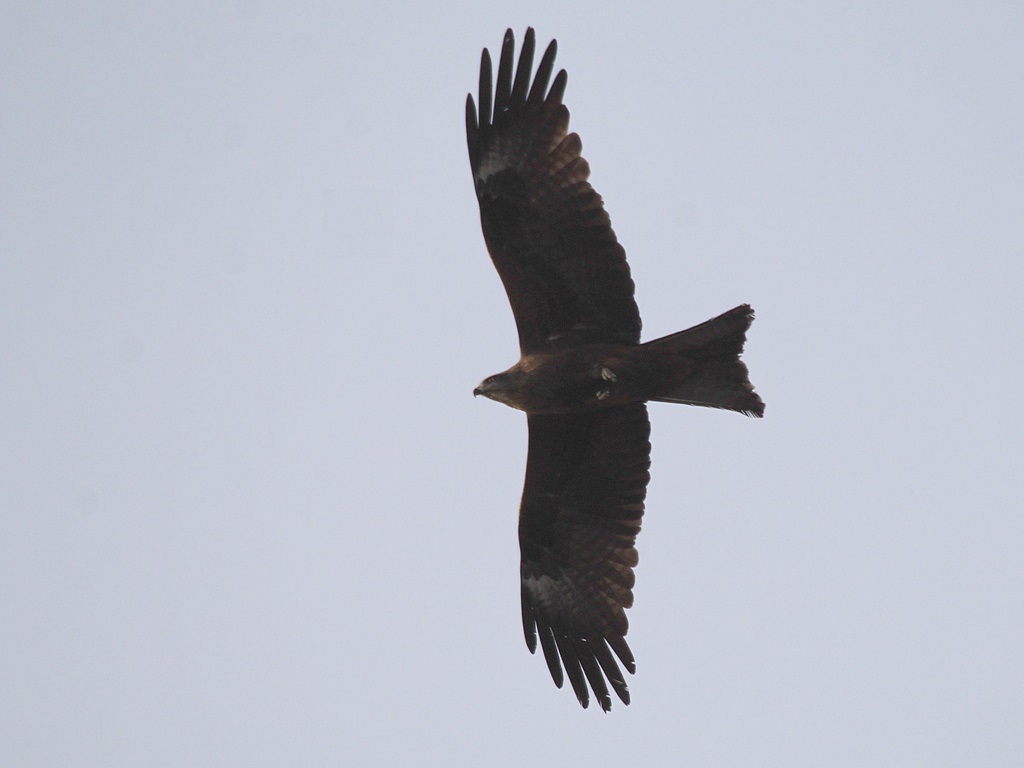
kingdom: Animalia
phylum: Chordata
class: Aves
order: Accipitriformes
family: Accipitridae
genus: Milvus
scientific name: Milvus migrans
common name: Black kite
